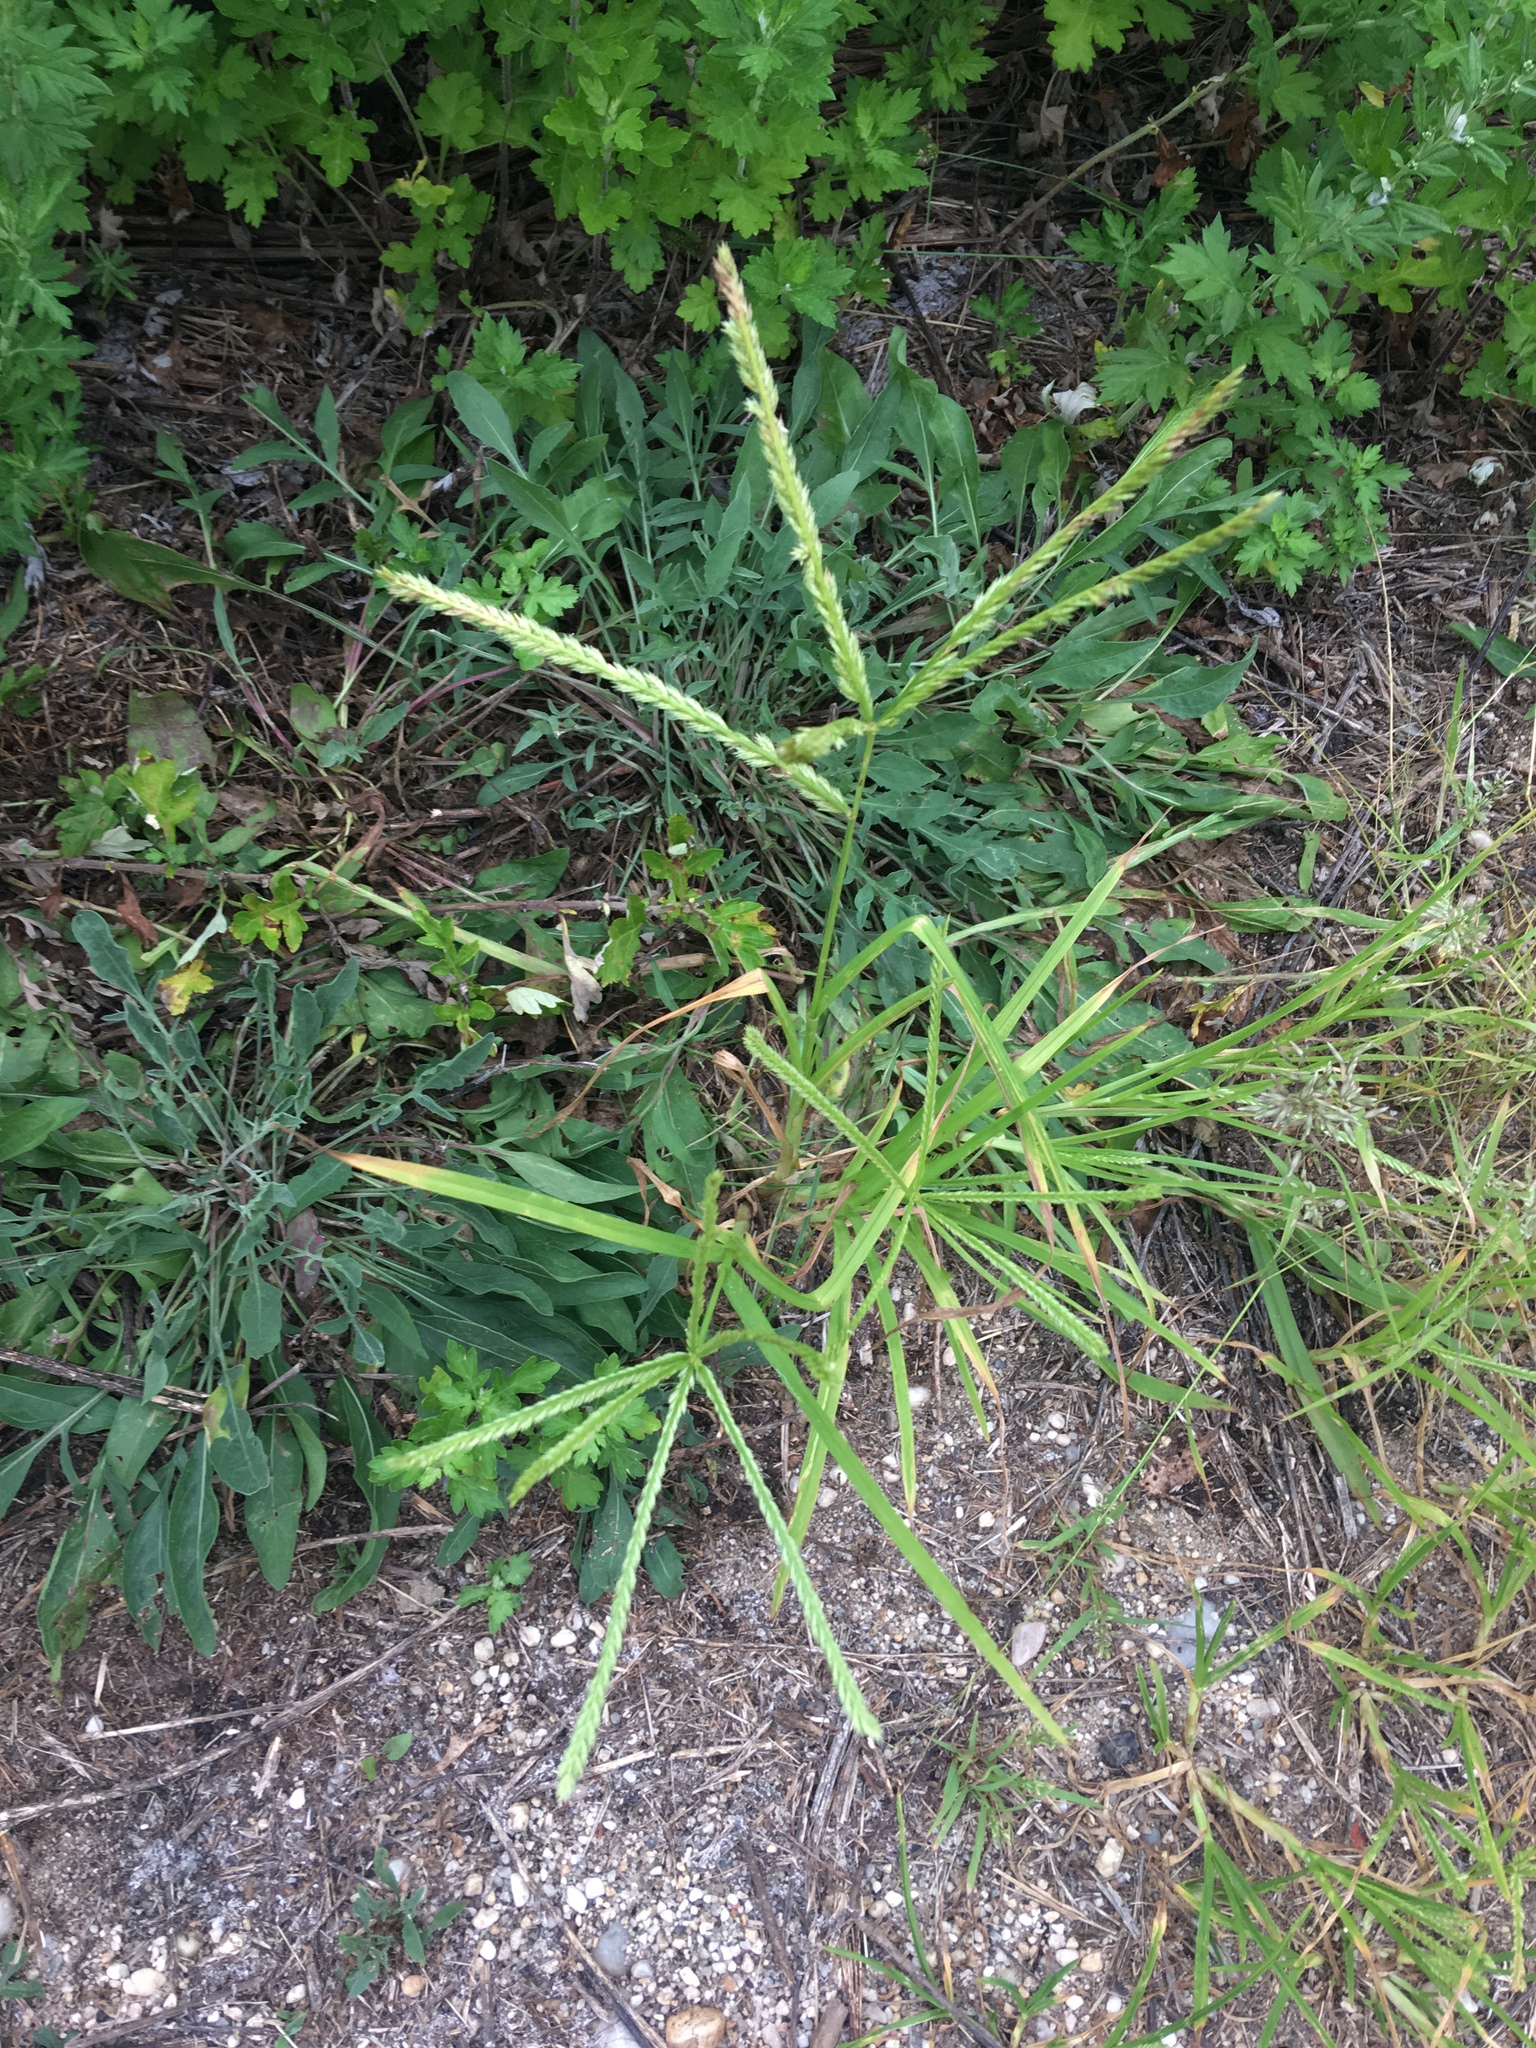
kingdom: Plantae
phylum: Tracheophyta
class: Liliopsida
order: Poales
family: Poaceae
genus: Eleusine
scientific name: Eleusine indica
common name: Yard-grass
